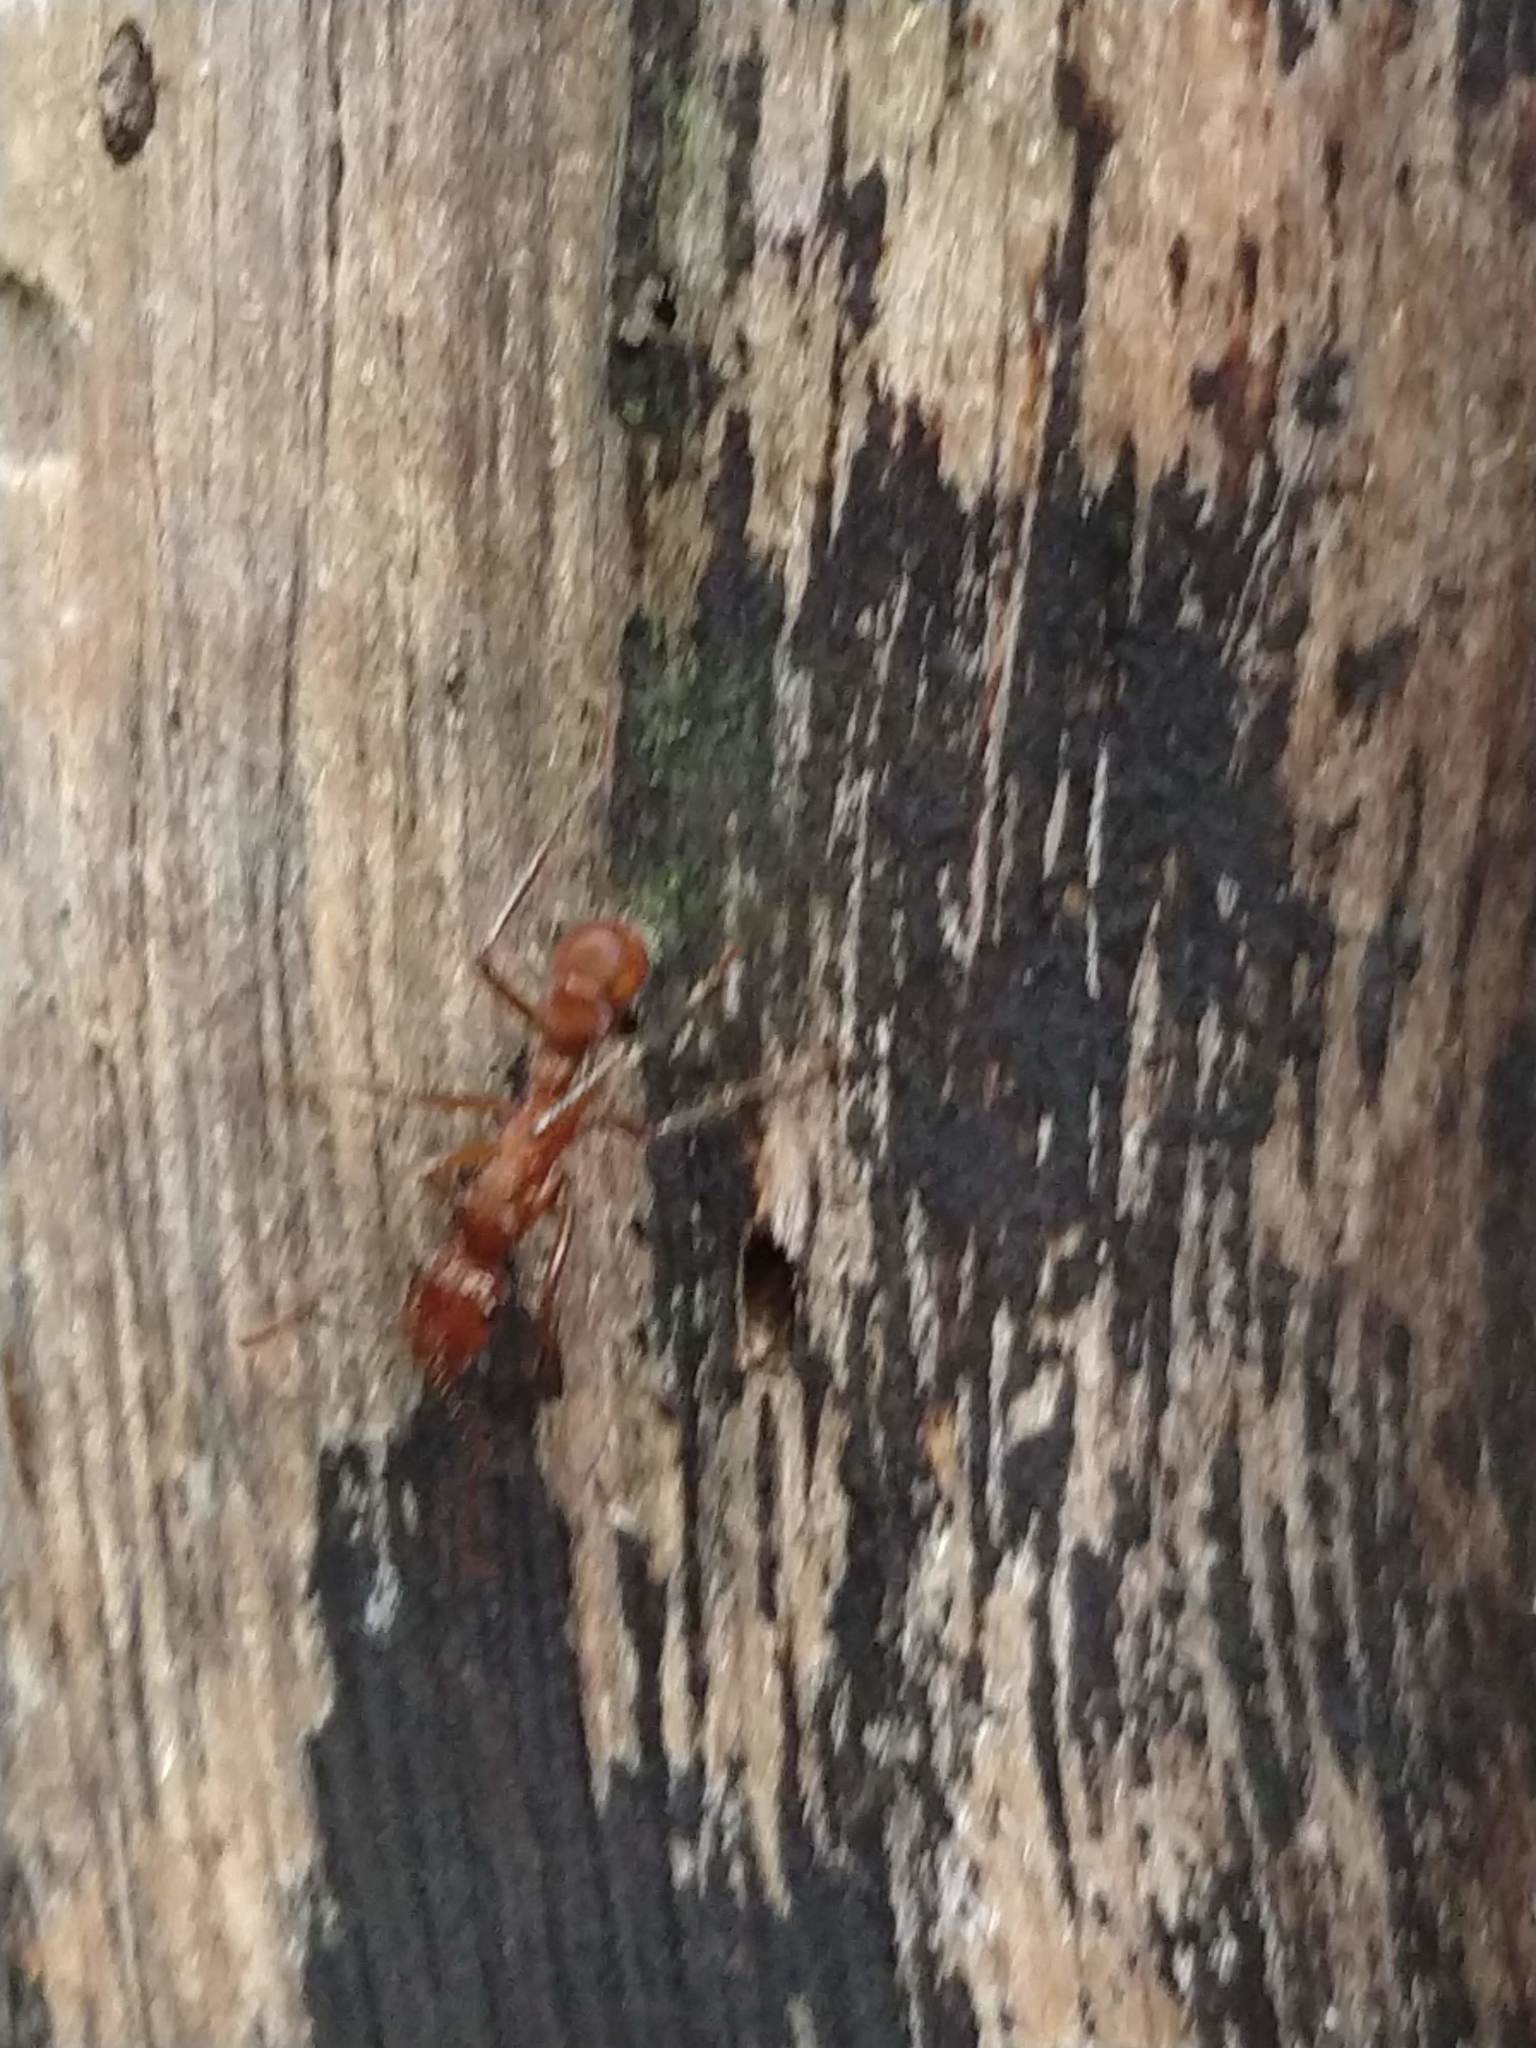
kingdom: Animalia
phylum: Arthropoda
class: Insecta
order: Hymenoptera
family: Formicidae
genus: Ectatomma
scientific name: Ectatomma tuberculatum
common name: Ant
